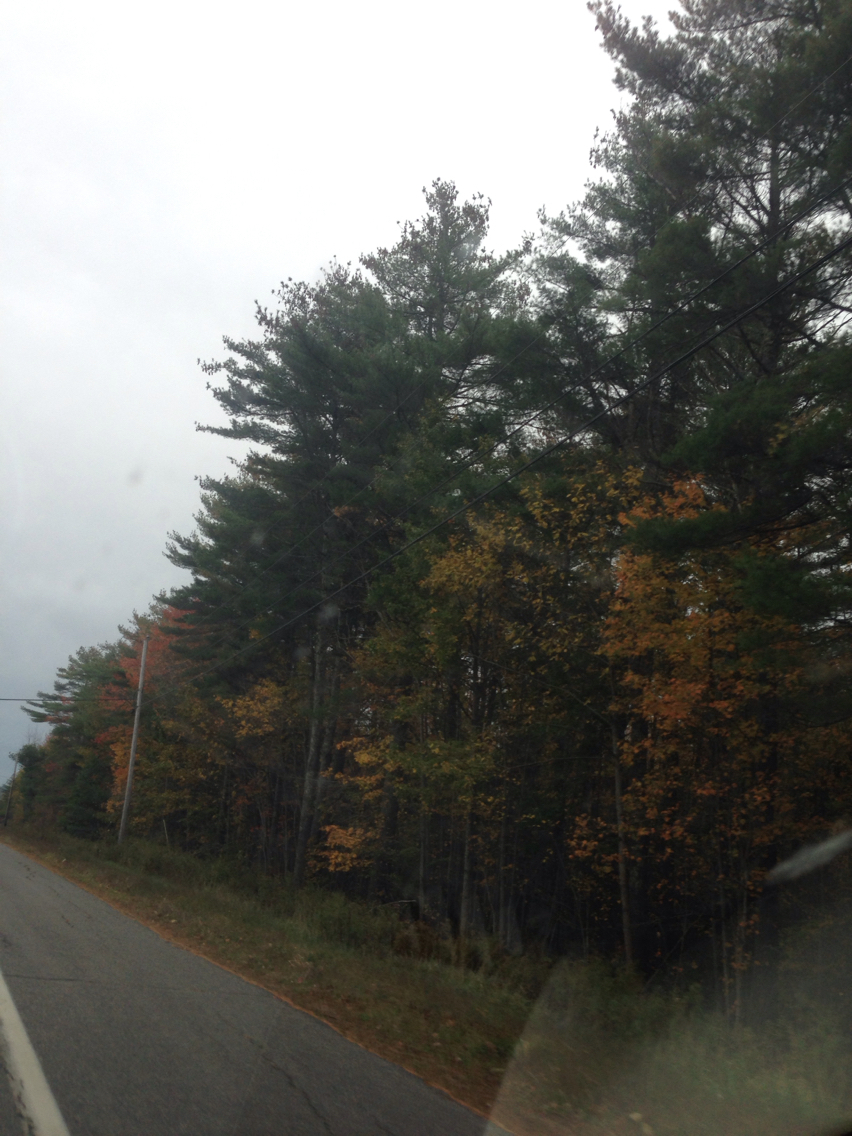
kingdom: Plantae
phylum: Tracheophyta
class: Pinopsida
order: Pinales
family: Pinaceae
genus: Pinus
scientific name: Pinus strobus
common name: Weymouth pine
